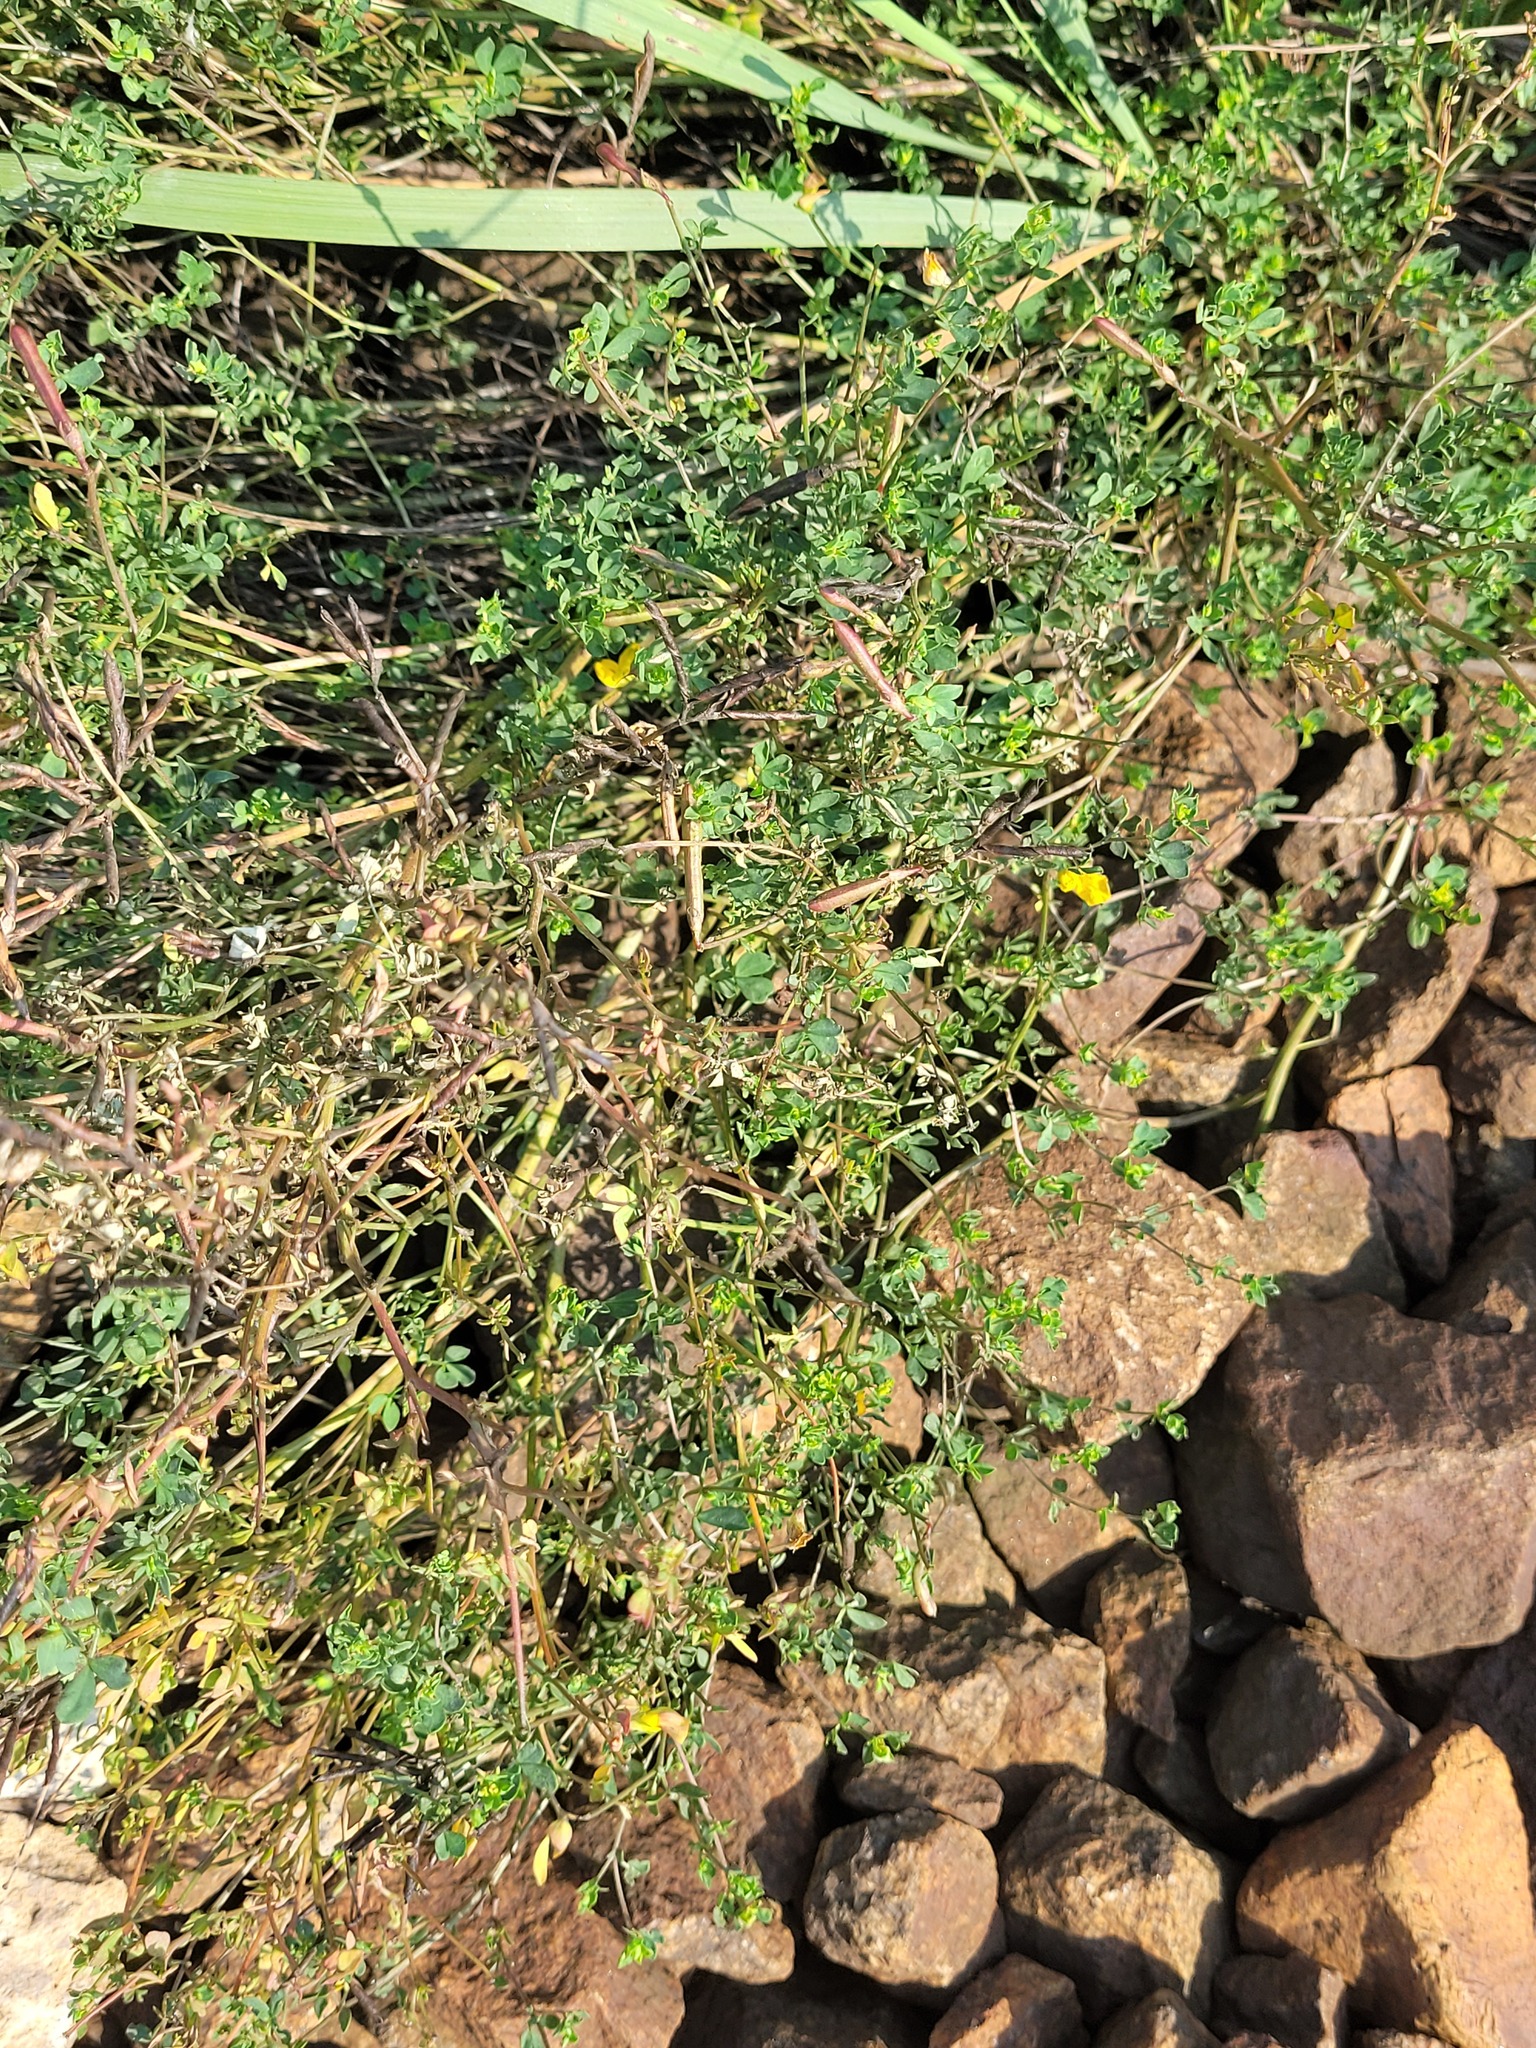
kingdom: Plantae
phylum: Tracheophyta
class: Magnoliopsida
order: Fabales
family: Fabaceae
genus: Lotus
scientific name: Lotus corniculatus
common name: Common bird's-foot-trefoil
